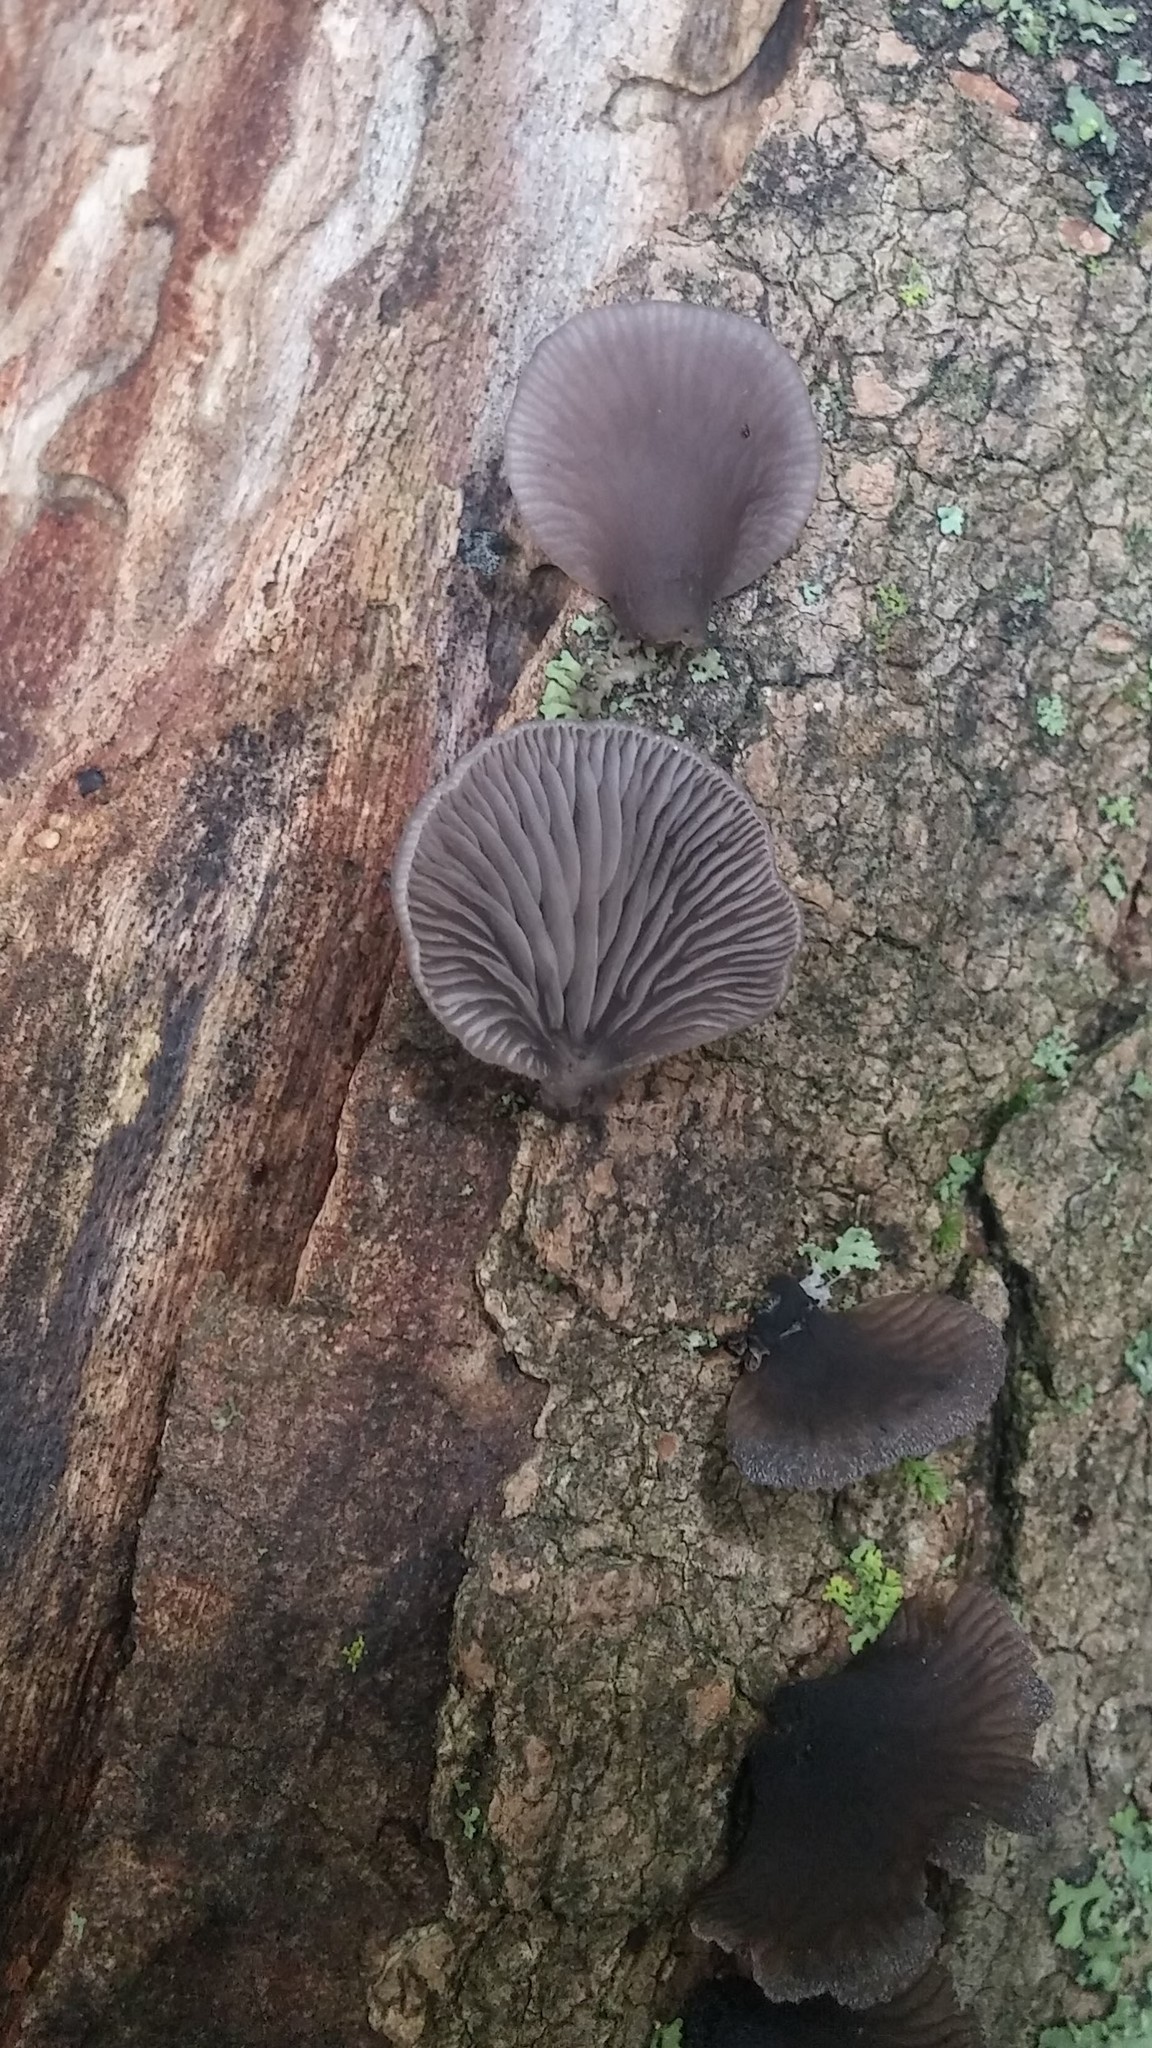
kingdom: Fungi
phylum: Basidiomycota
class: Agaricomycetes
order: Agaricales
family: Pleurotaceae
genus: Resupinatus
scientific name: Resupinatus applicatus
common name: Smoked oysterling
